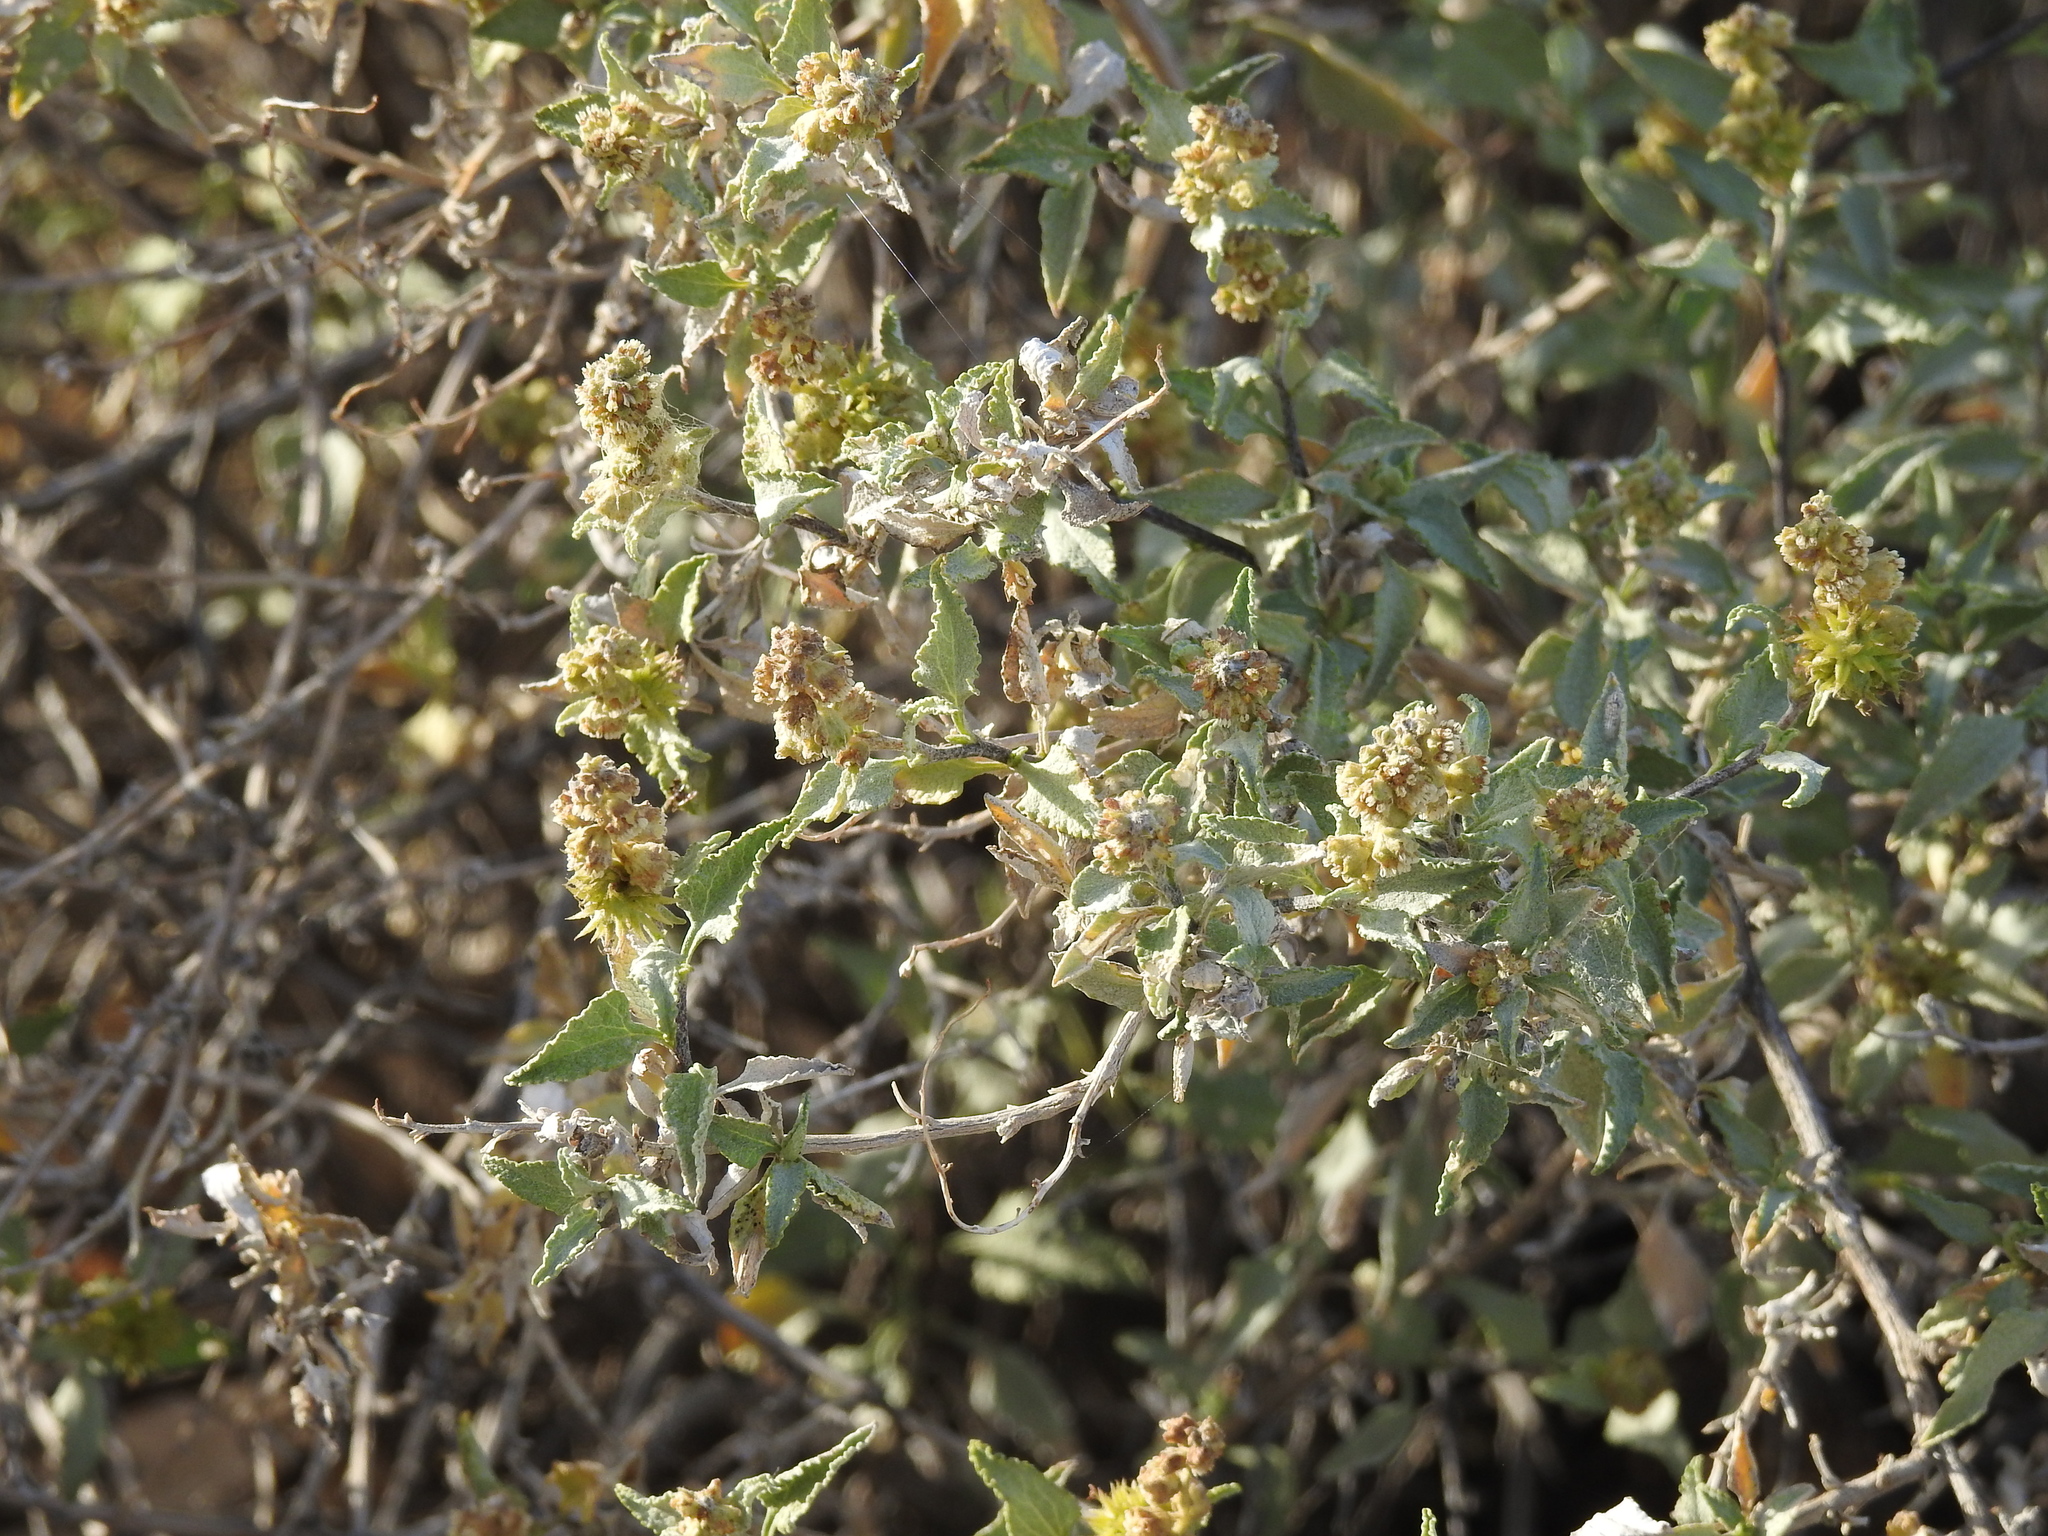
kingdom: Plantae
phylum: Tracheophyta
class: Magnoliopsida
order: Asterales
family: Asteraceae
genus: Ambrosia
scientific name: Ambrosia deltoidea
